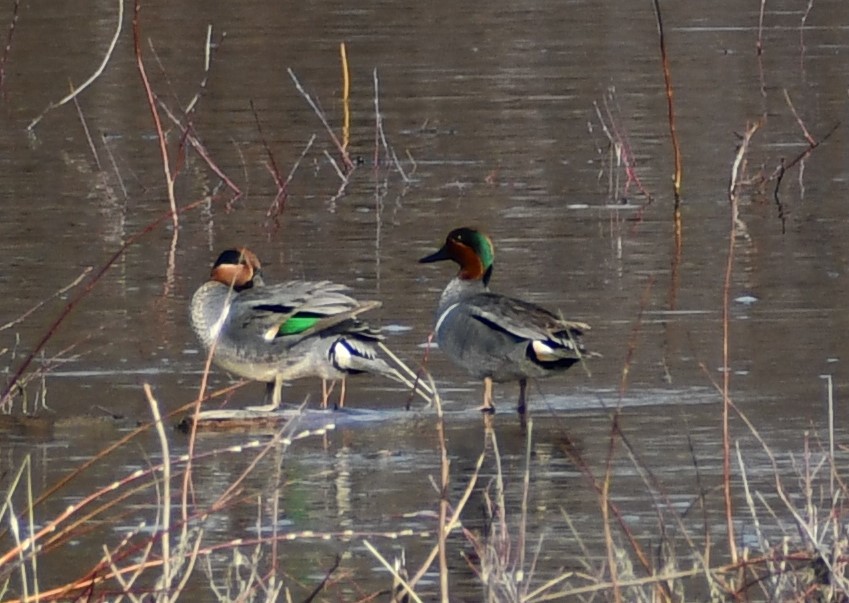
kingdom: Animalia
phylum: Chordata
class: Aves
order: Anseriformes
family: Anatidae
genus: Anas
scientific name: Anas crecca
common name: Eurasian teal
